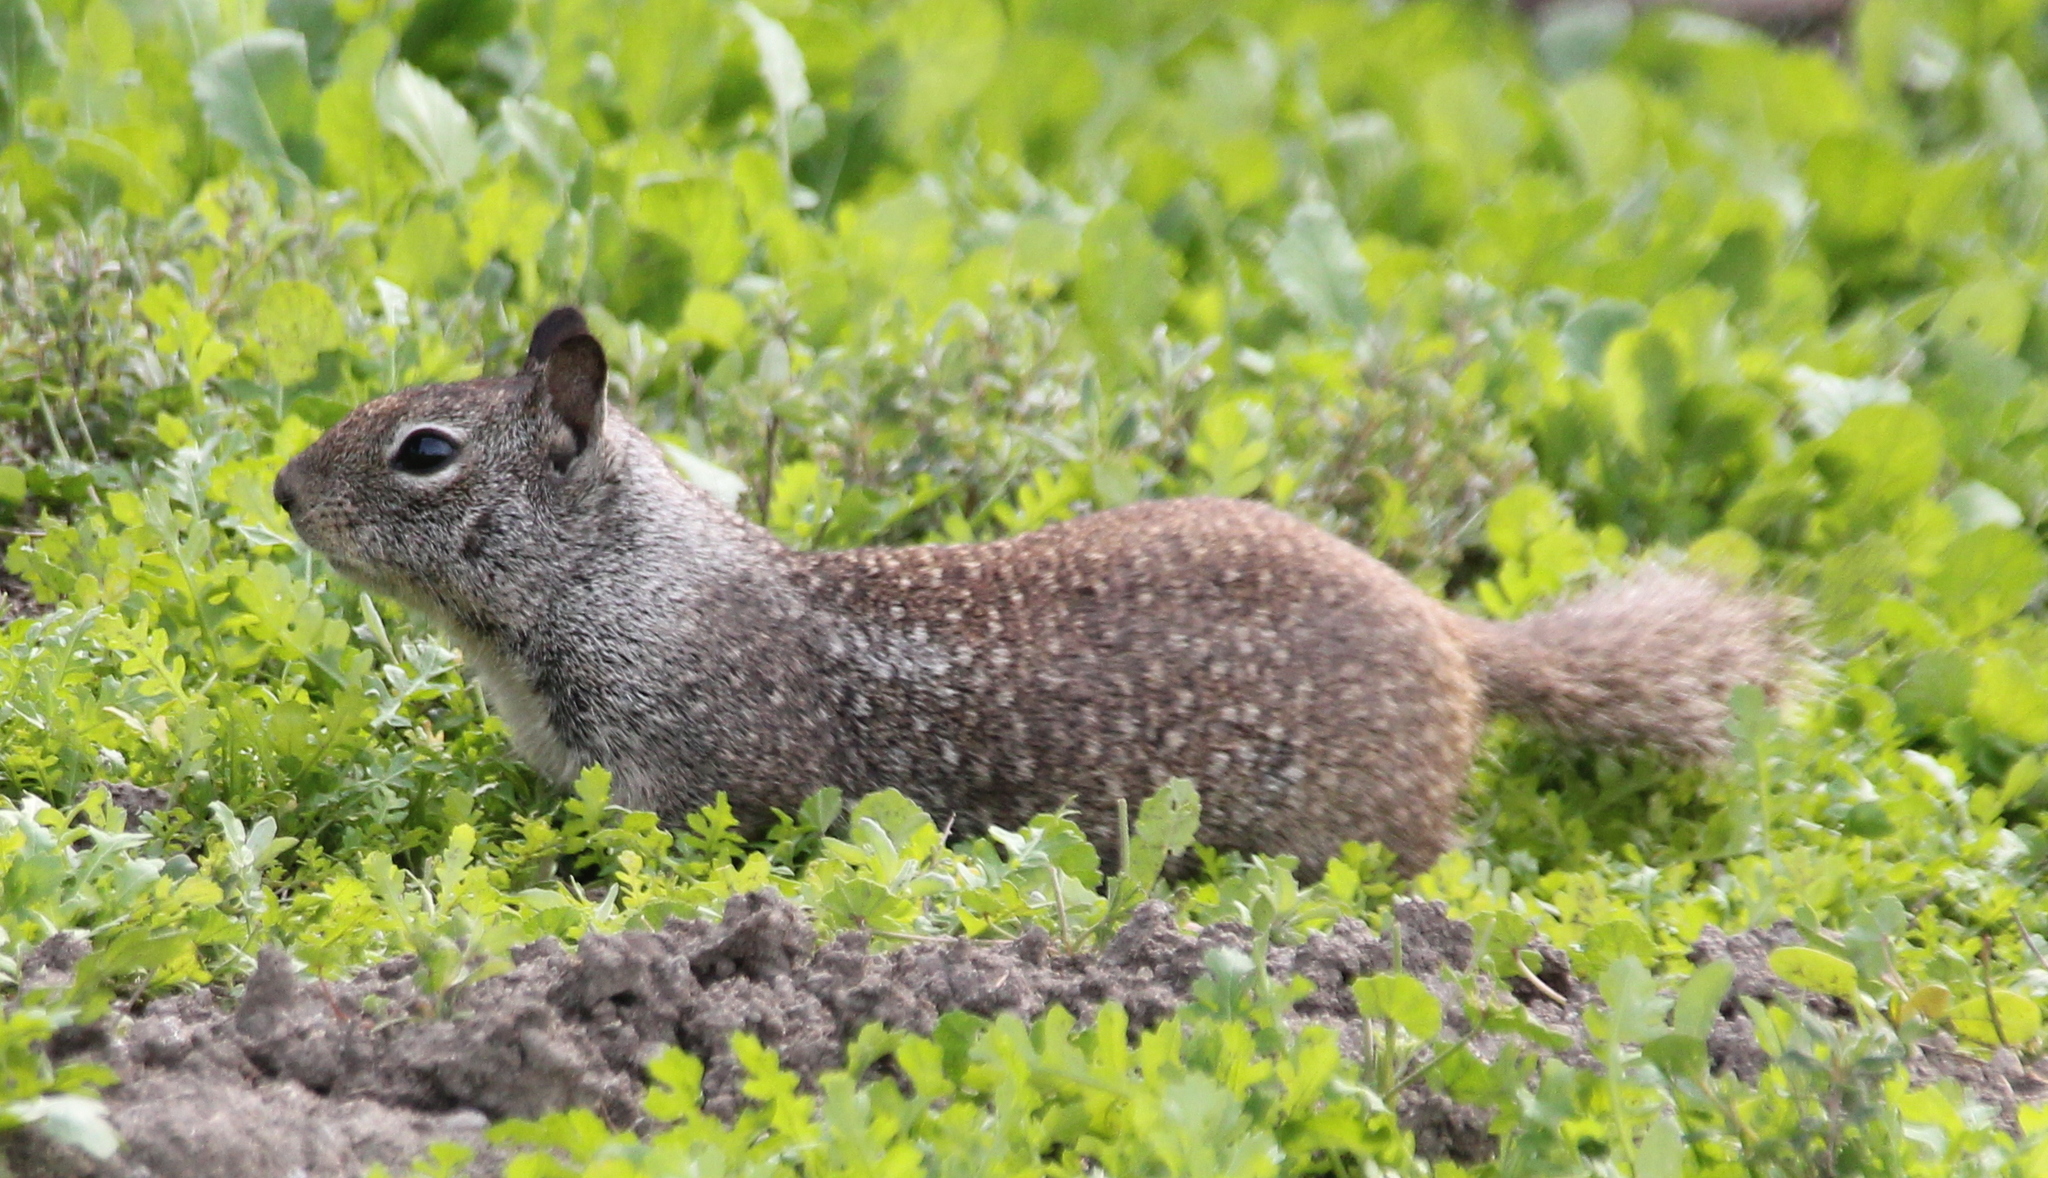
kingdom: Animalia
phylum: Chordata
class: Mammalia
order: Rodentia
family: Sciuridae
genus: Otospermophilus
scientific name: Otospermophilus beecheyi
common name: California ground squirrel
